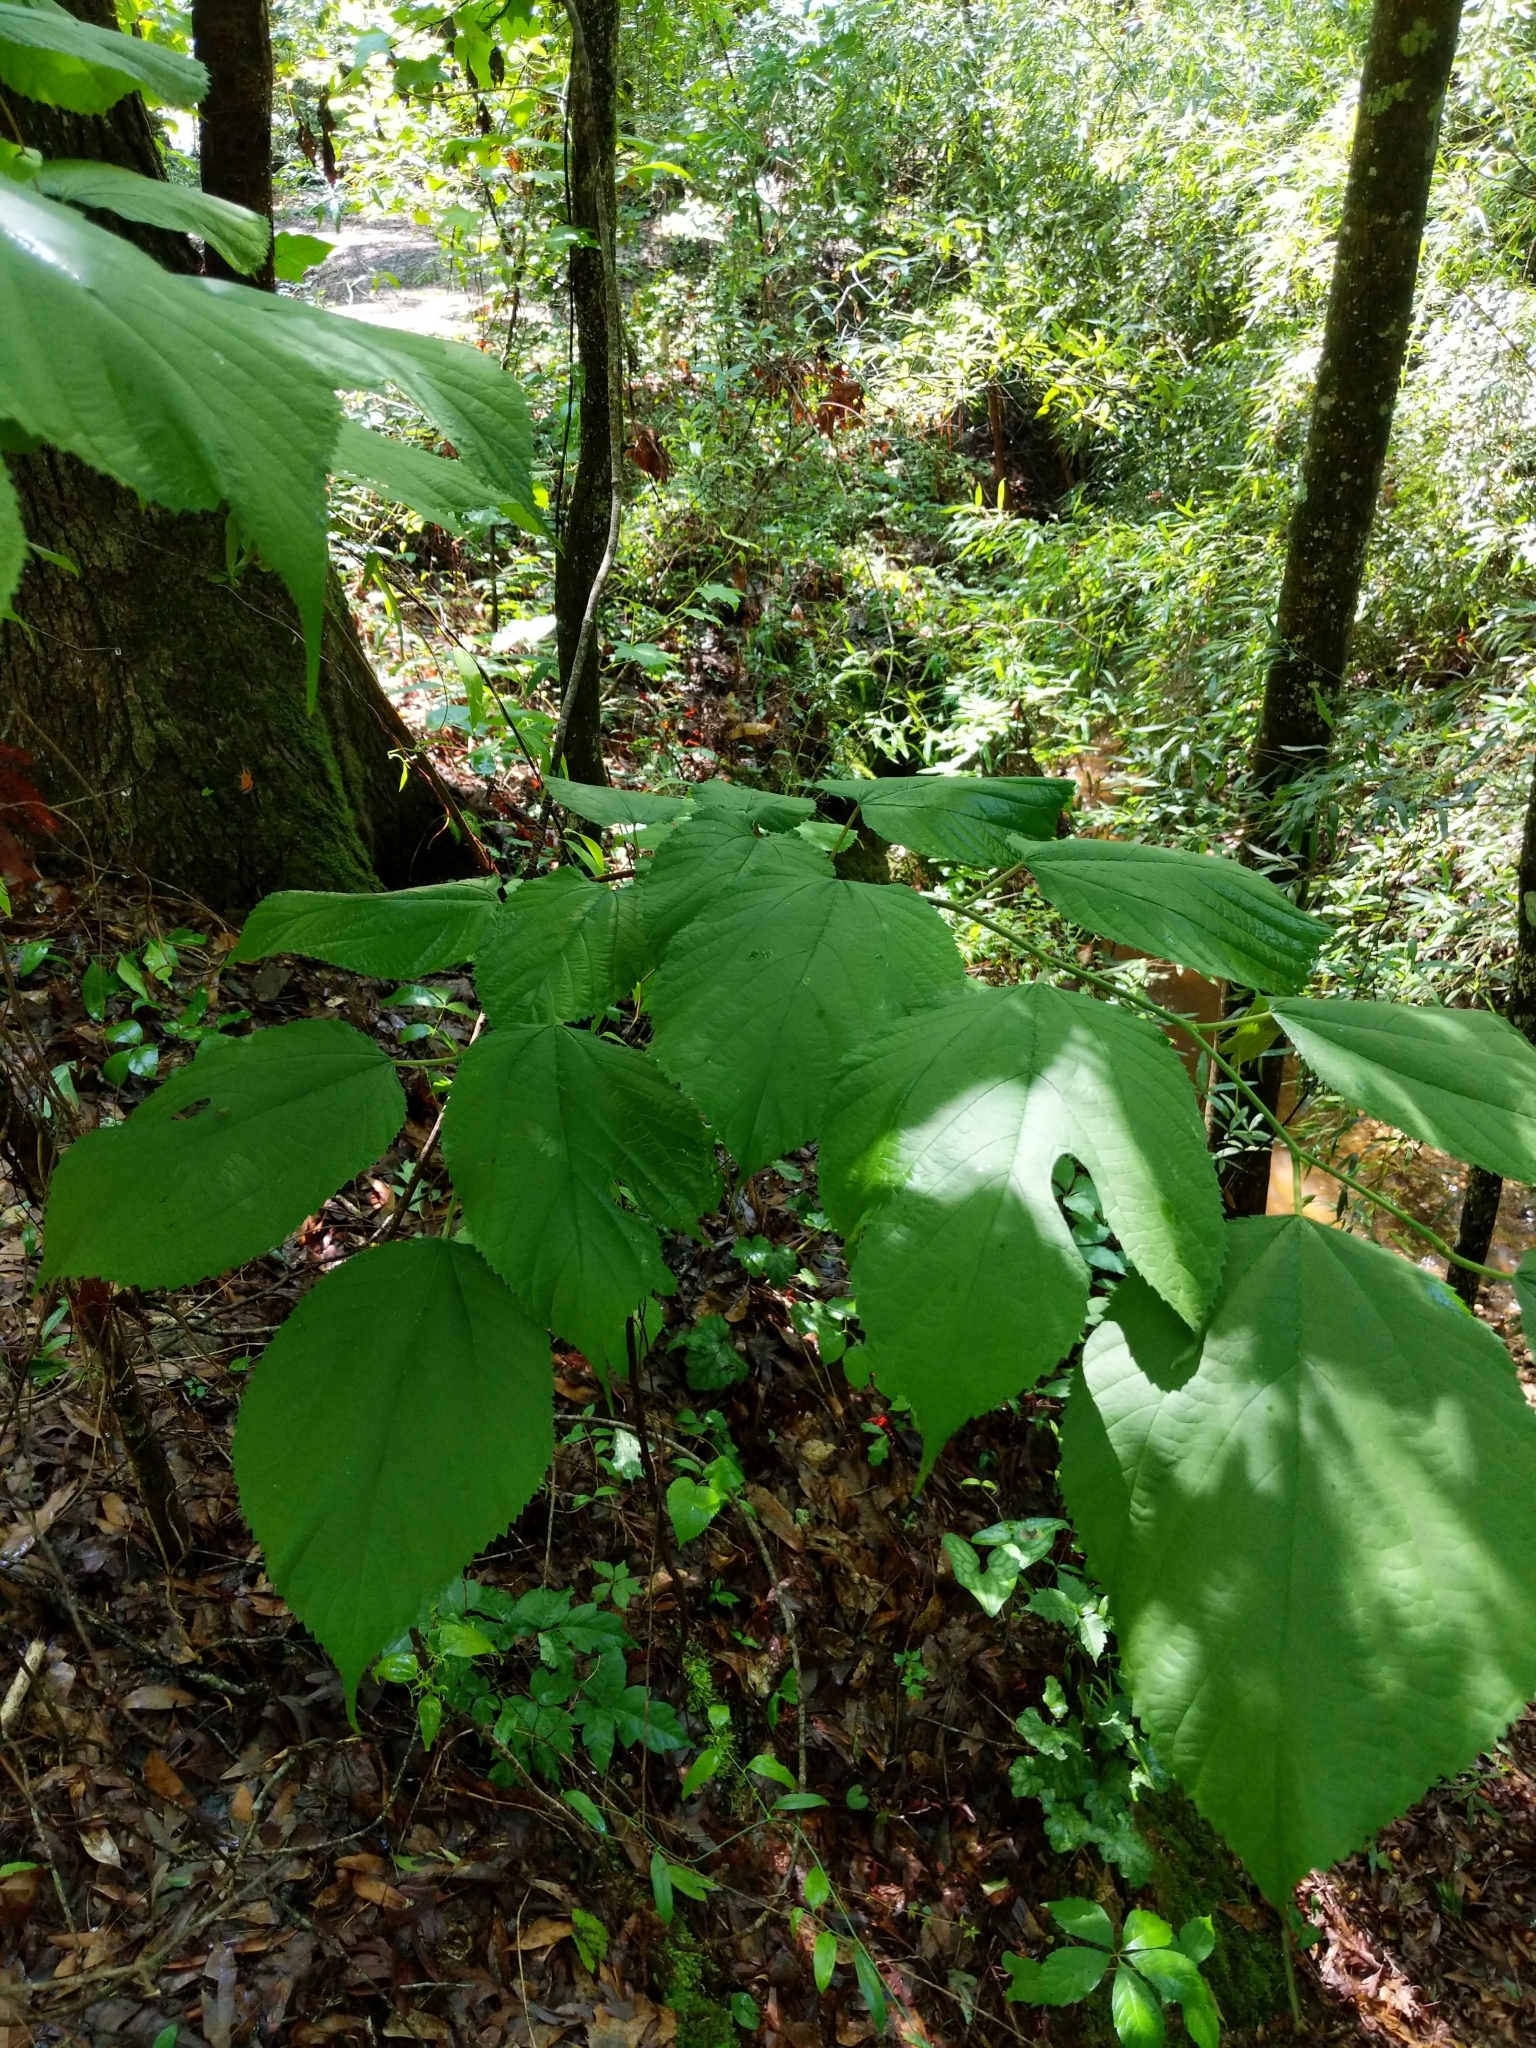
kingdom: Plantae
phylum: Tracheophyta
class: Magnoliopsida
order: Rosales
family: Moraceae
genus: Morus
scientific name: Morus rubra
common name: Red mulberry
